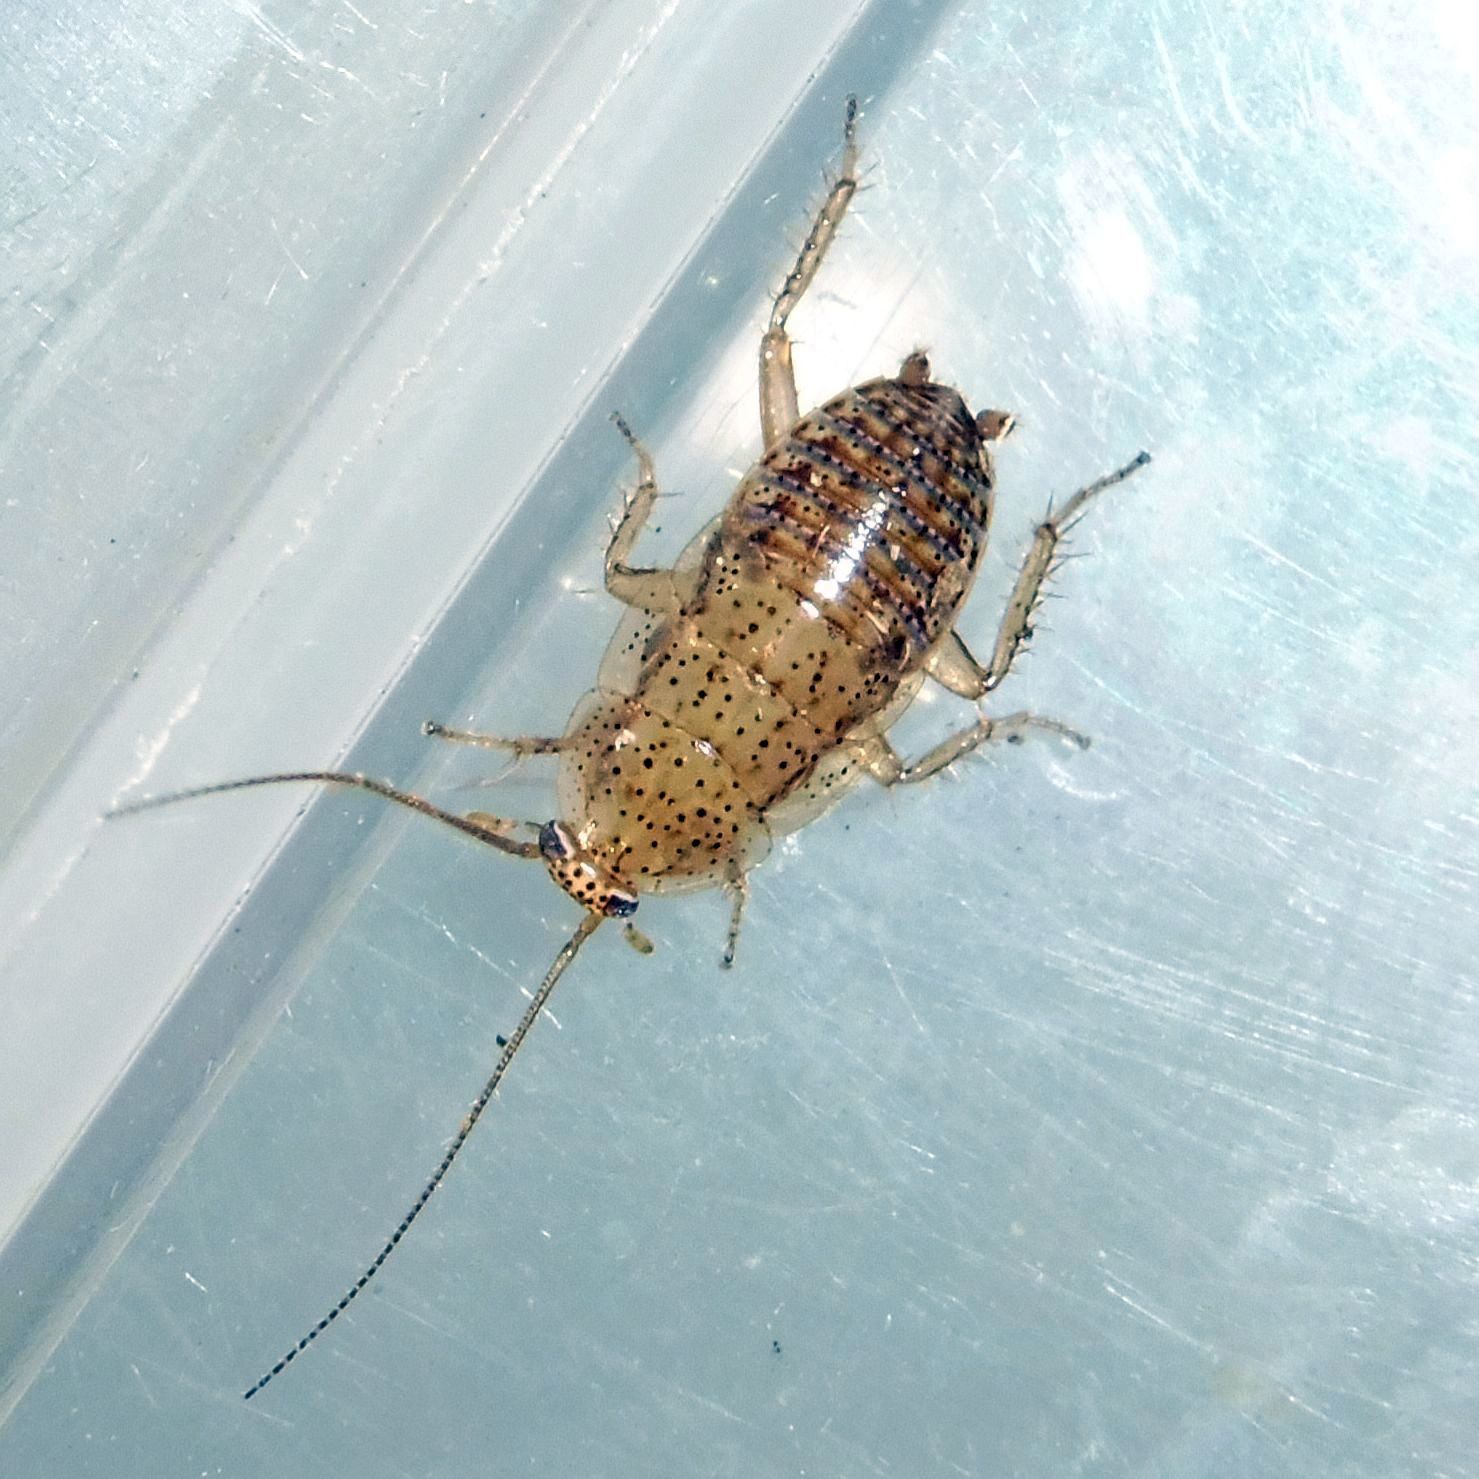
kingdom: Animalia
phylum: Arthropoda
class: Insecta
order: Blattodea
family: Ectobiidae
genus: Ectobius
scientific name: Ectobius pallidus
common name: Tawny cockroach
